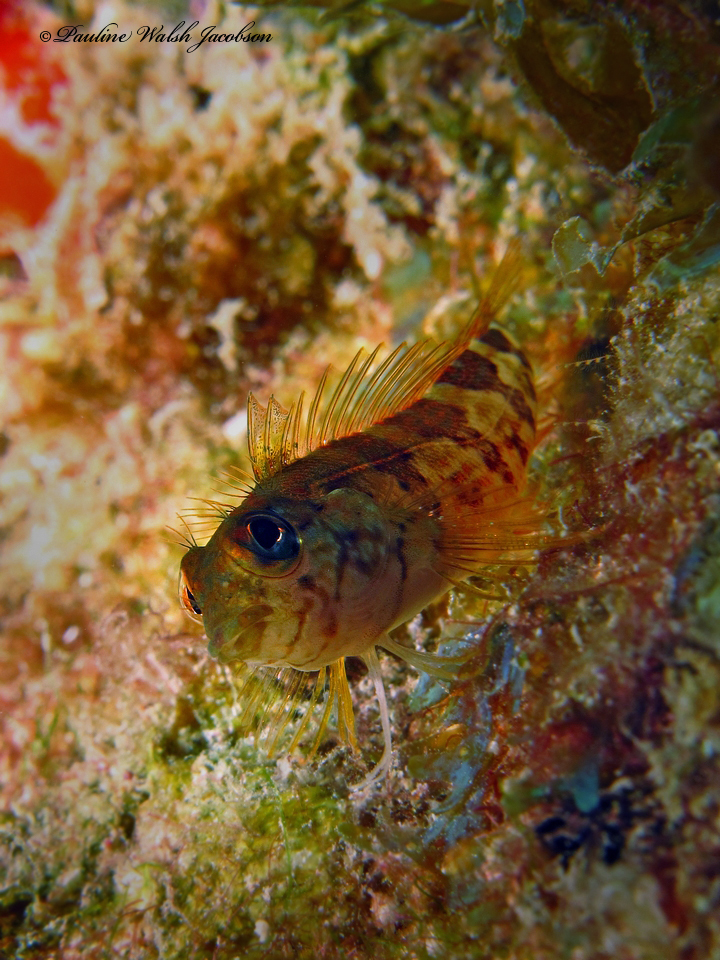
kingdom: Animalia
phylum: Chordata
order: Perciformes
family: Labrisomidae
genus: Malacoctenus
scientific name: Malacoctenus triangulatus
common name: Saddled blenny
